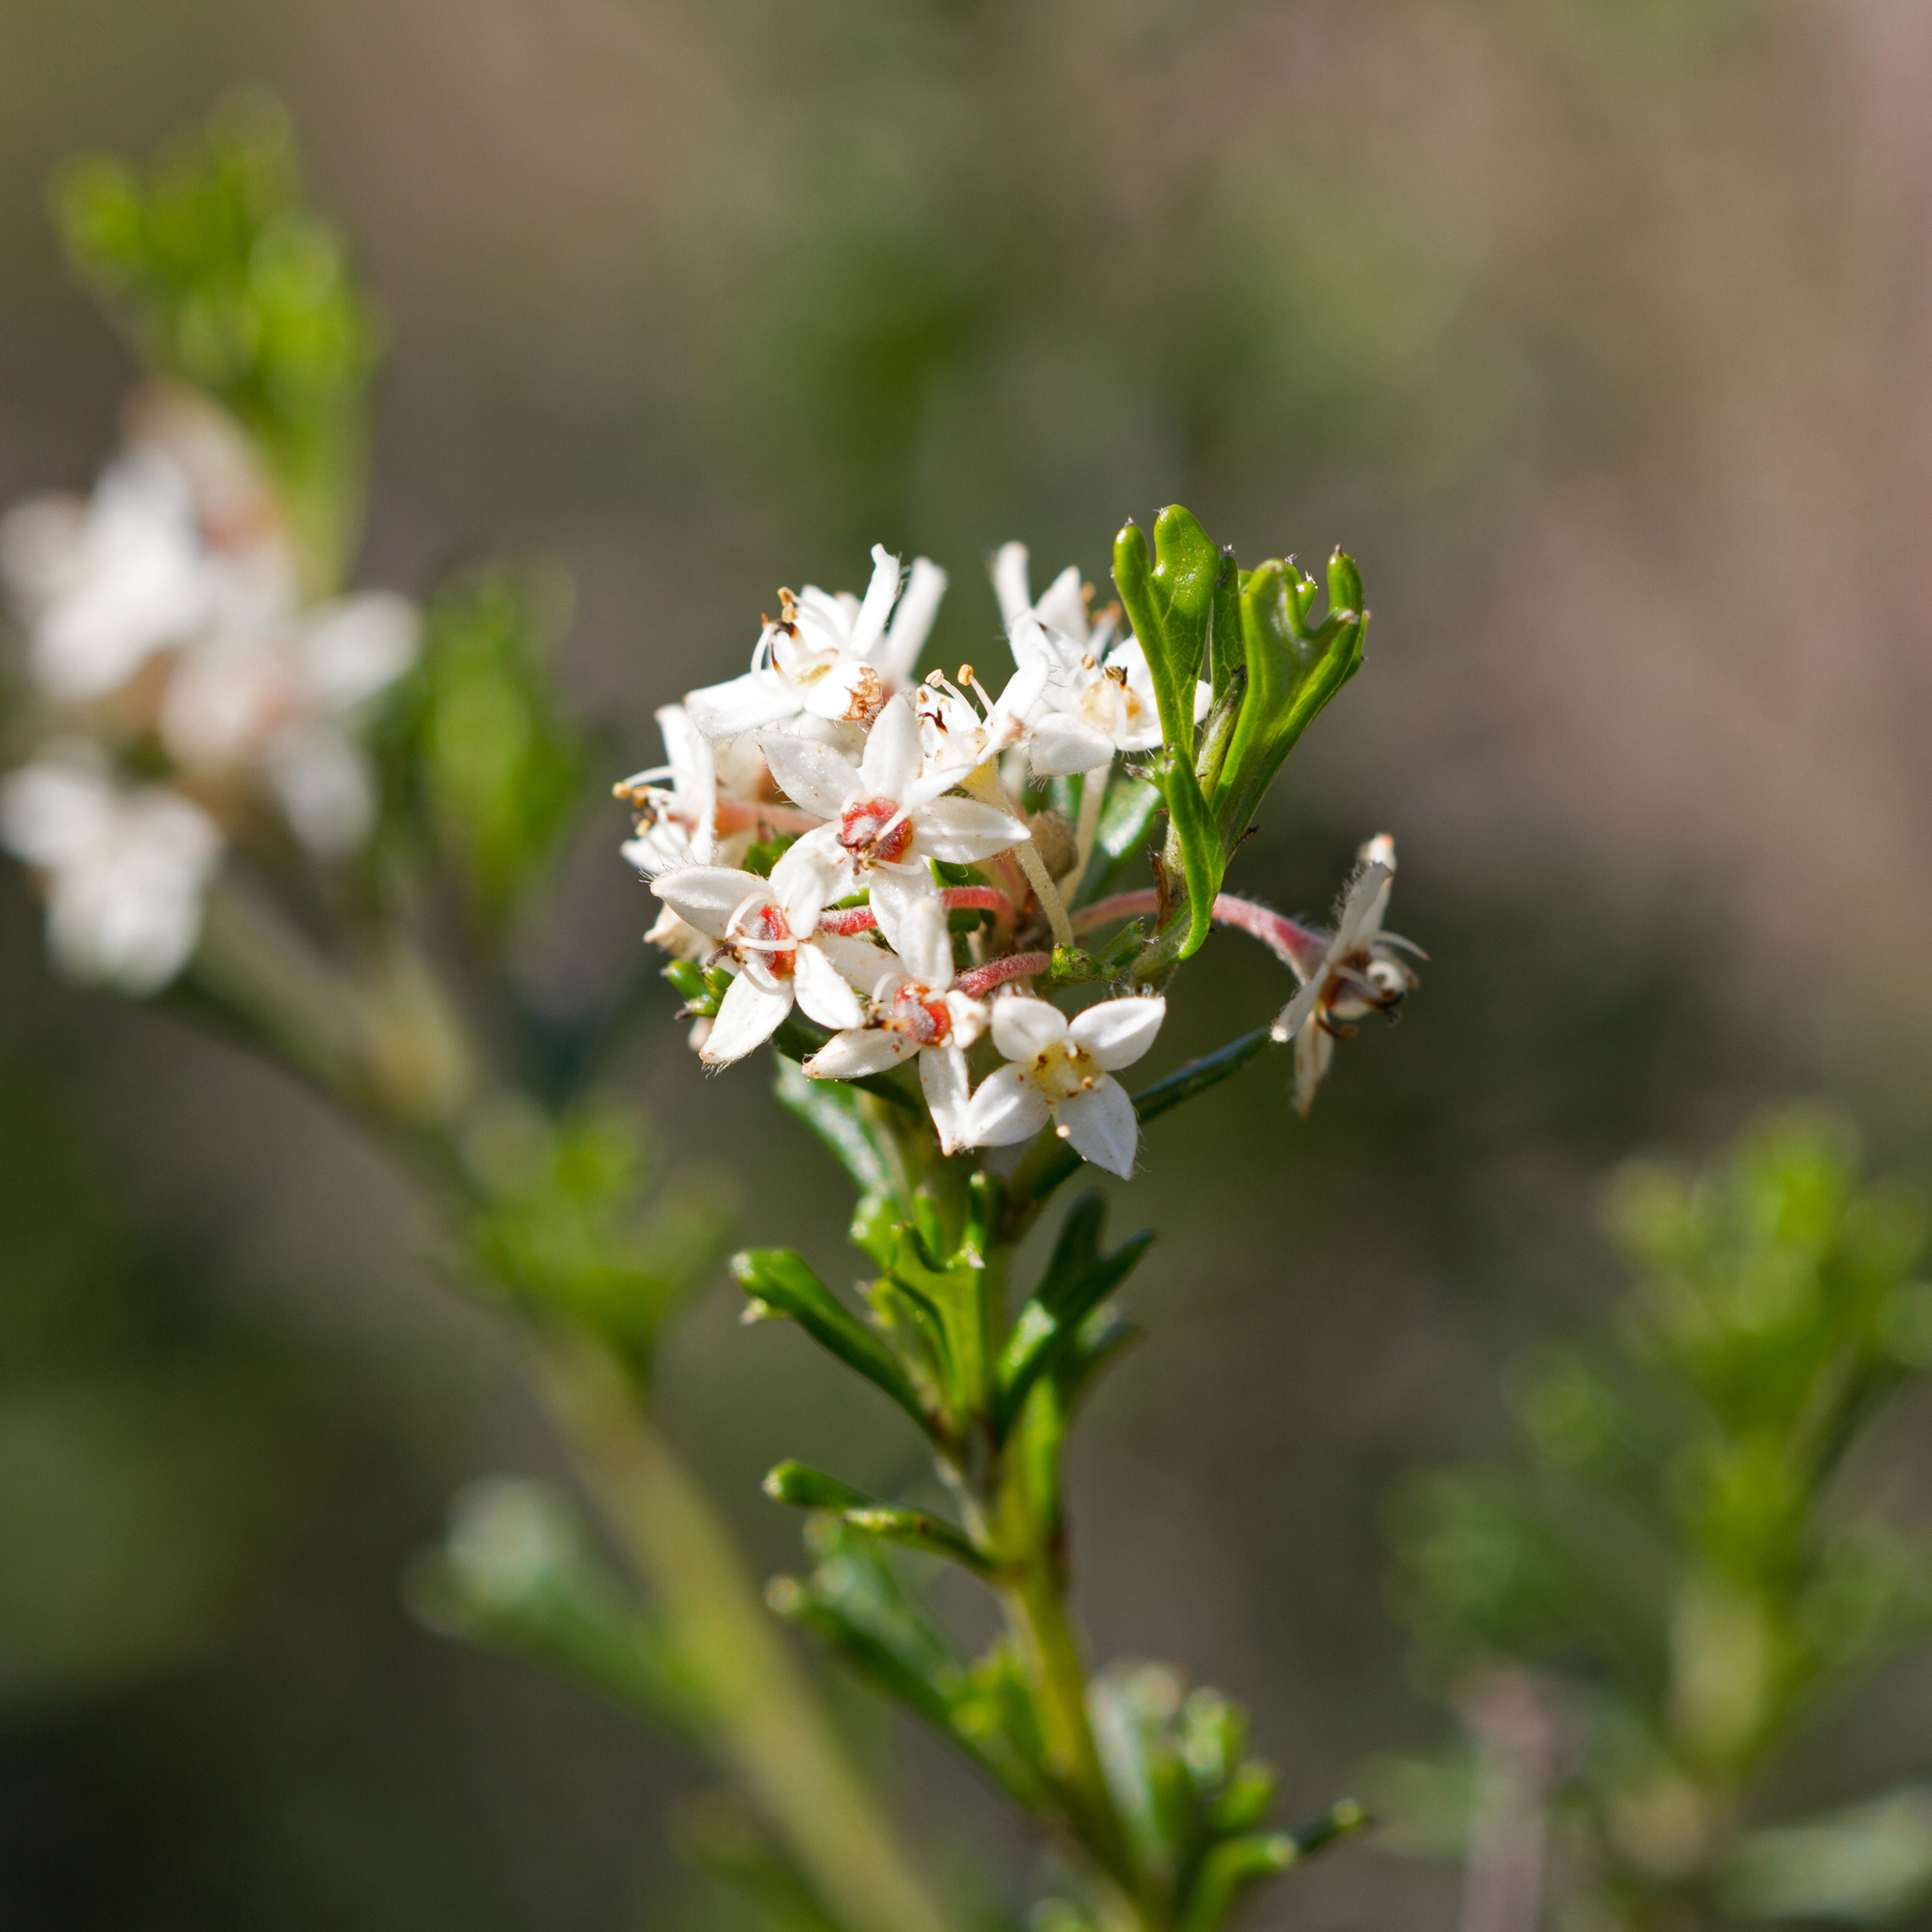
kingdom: Plantae
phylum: Tracheophyta
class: Magnoliopsida
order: Rosales
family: Rhamnaceae
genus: Pomaderris
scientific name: Pomaderris obcordata
